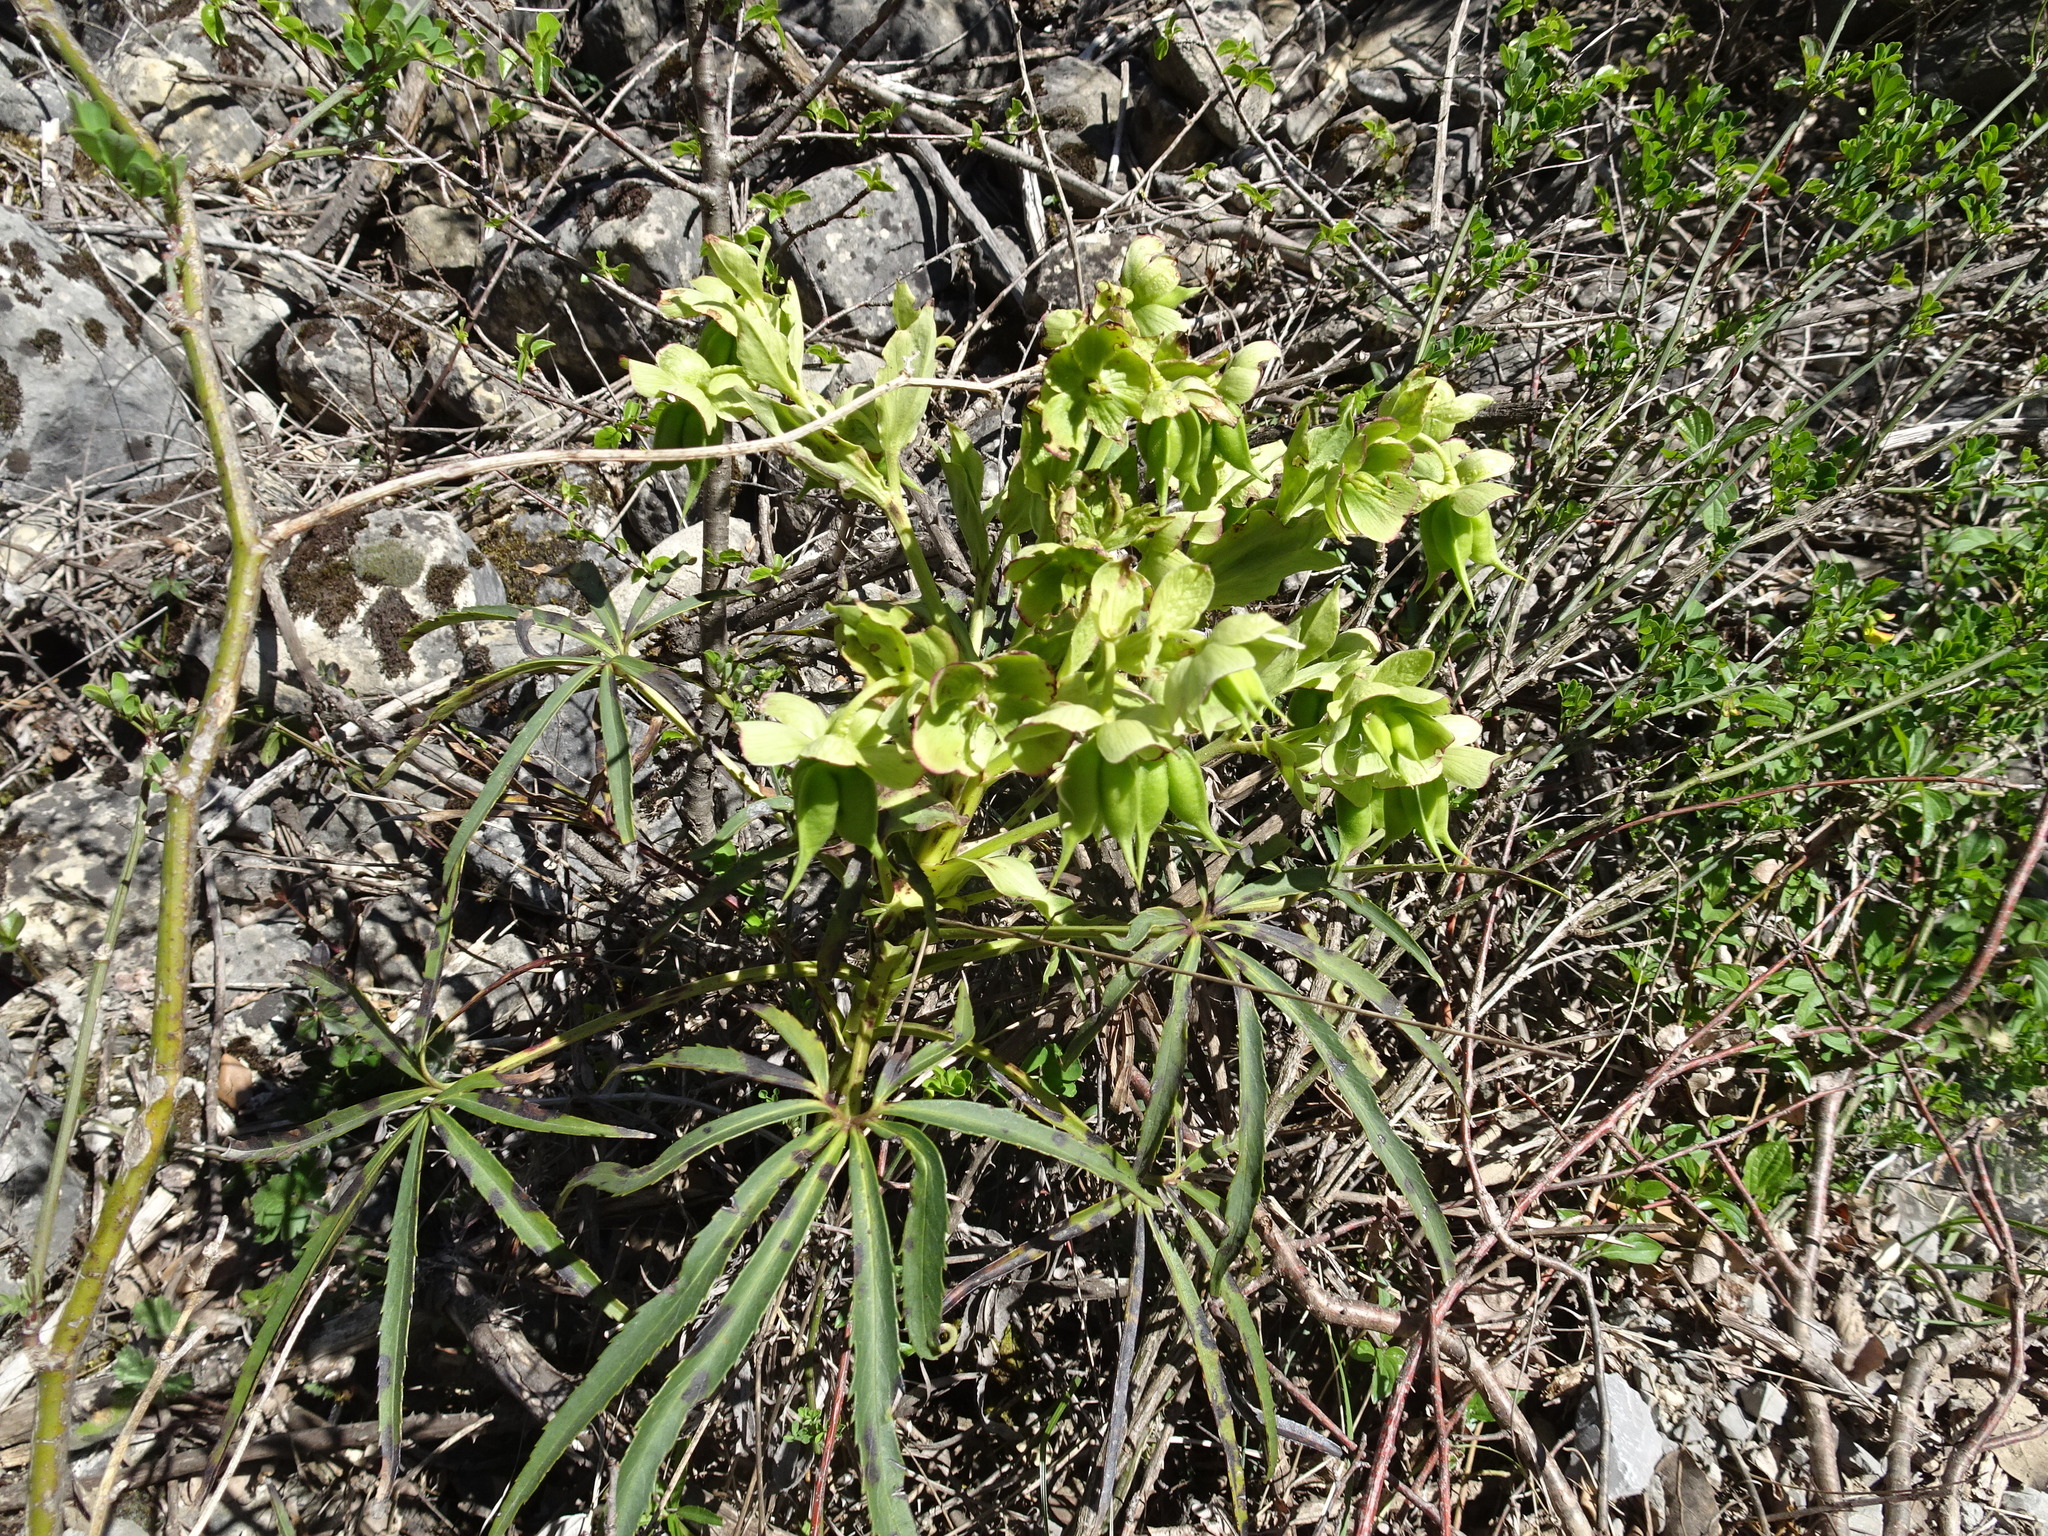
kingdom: Plantae
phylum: Tracheophyta
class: Magnoliopsida
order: Ranunculales
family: Ranunculaceae
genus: Helleborus
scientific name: Helleborus foetidus
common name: Stinking hellebore
